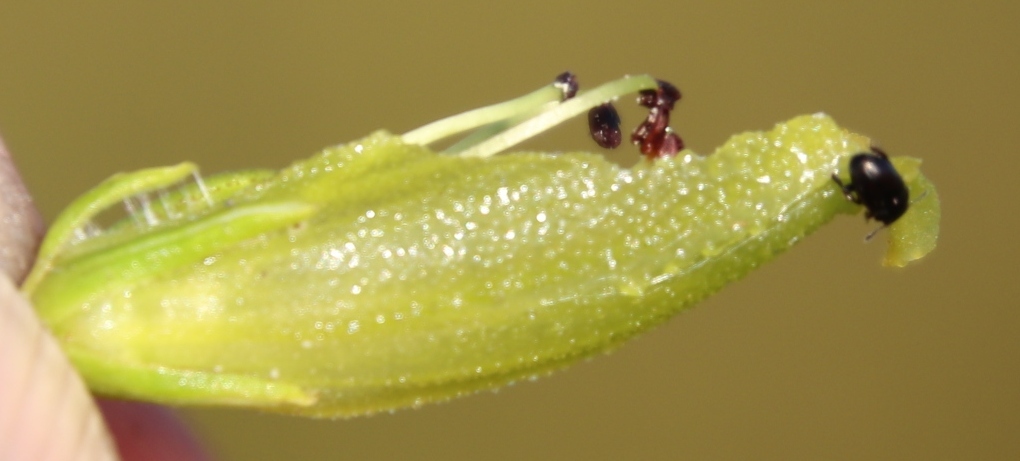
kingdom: Plantae
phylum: Tracheophyta
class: Magnoliopsida
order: Ericales
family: Ericaceae
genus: Erica
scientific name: Erica viscaria
